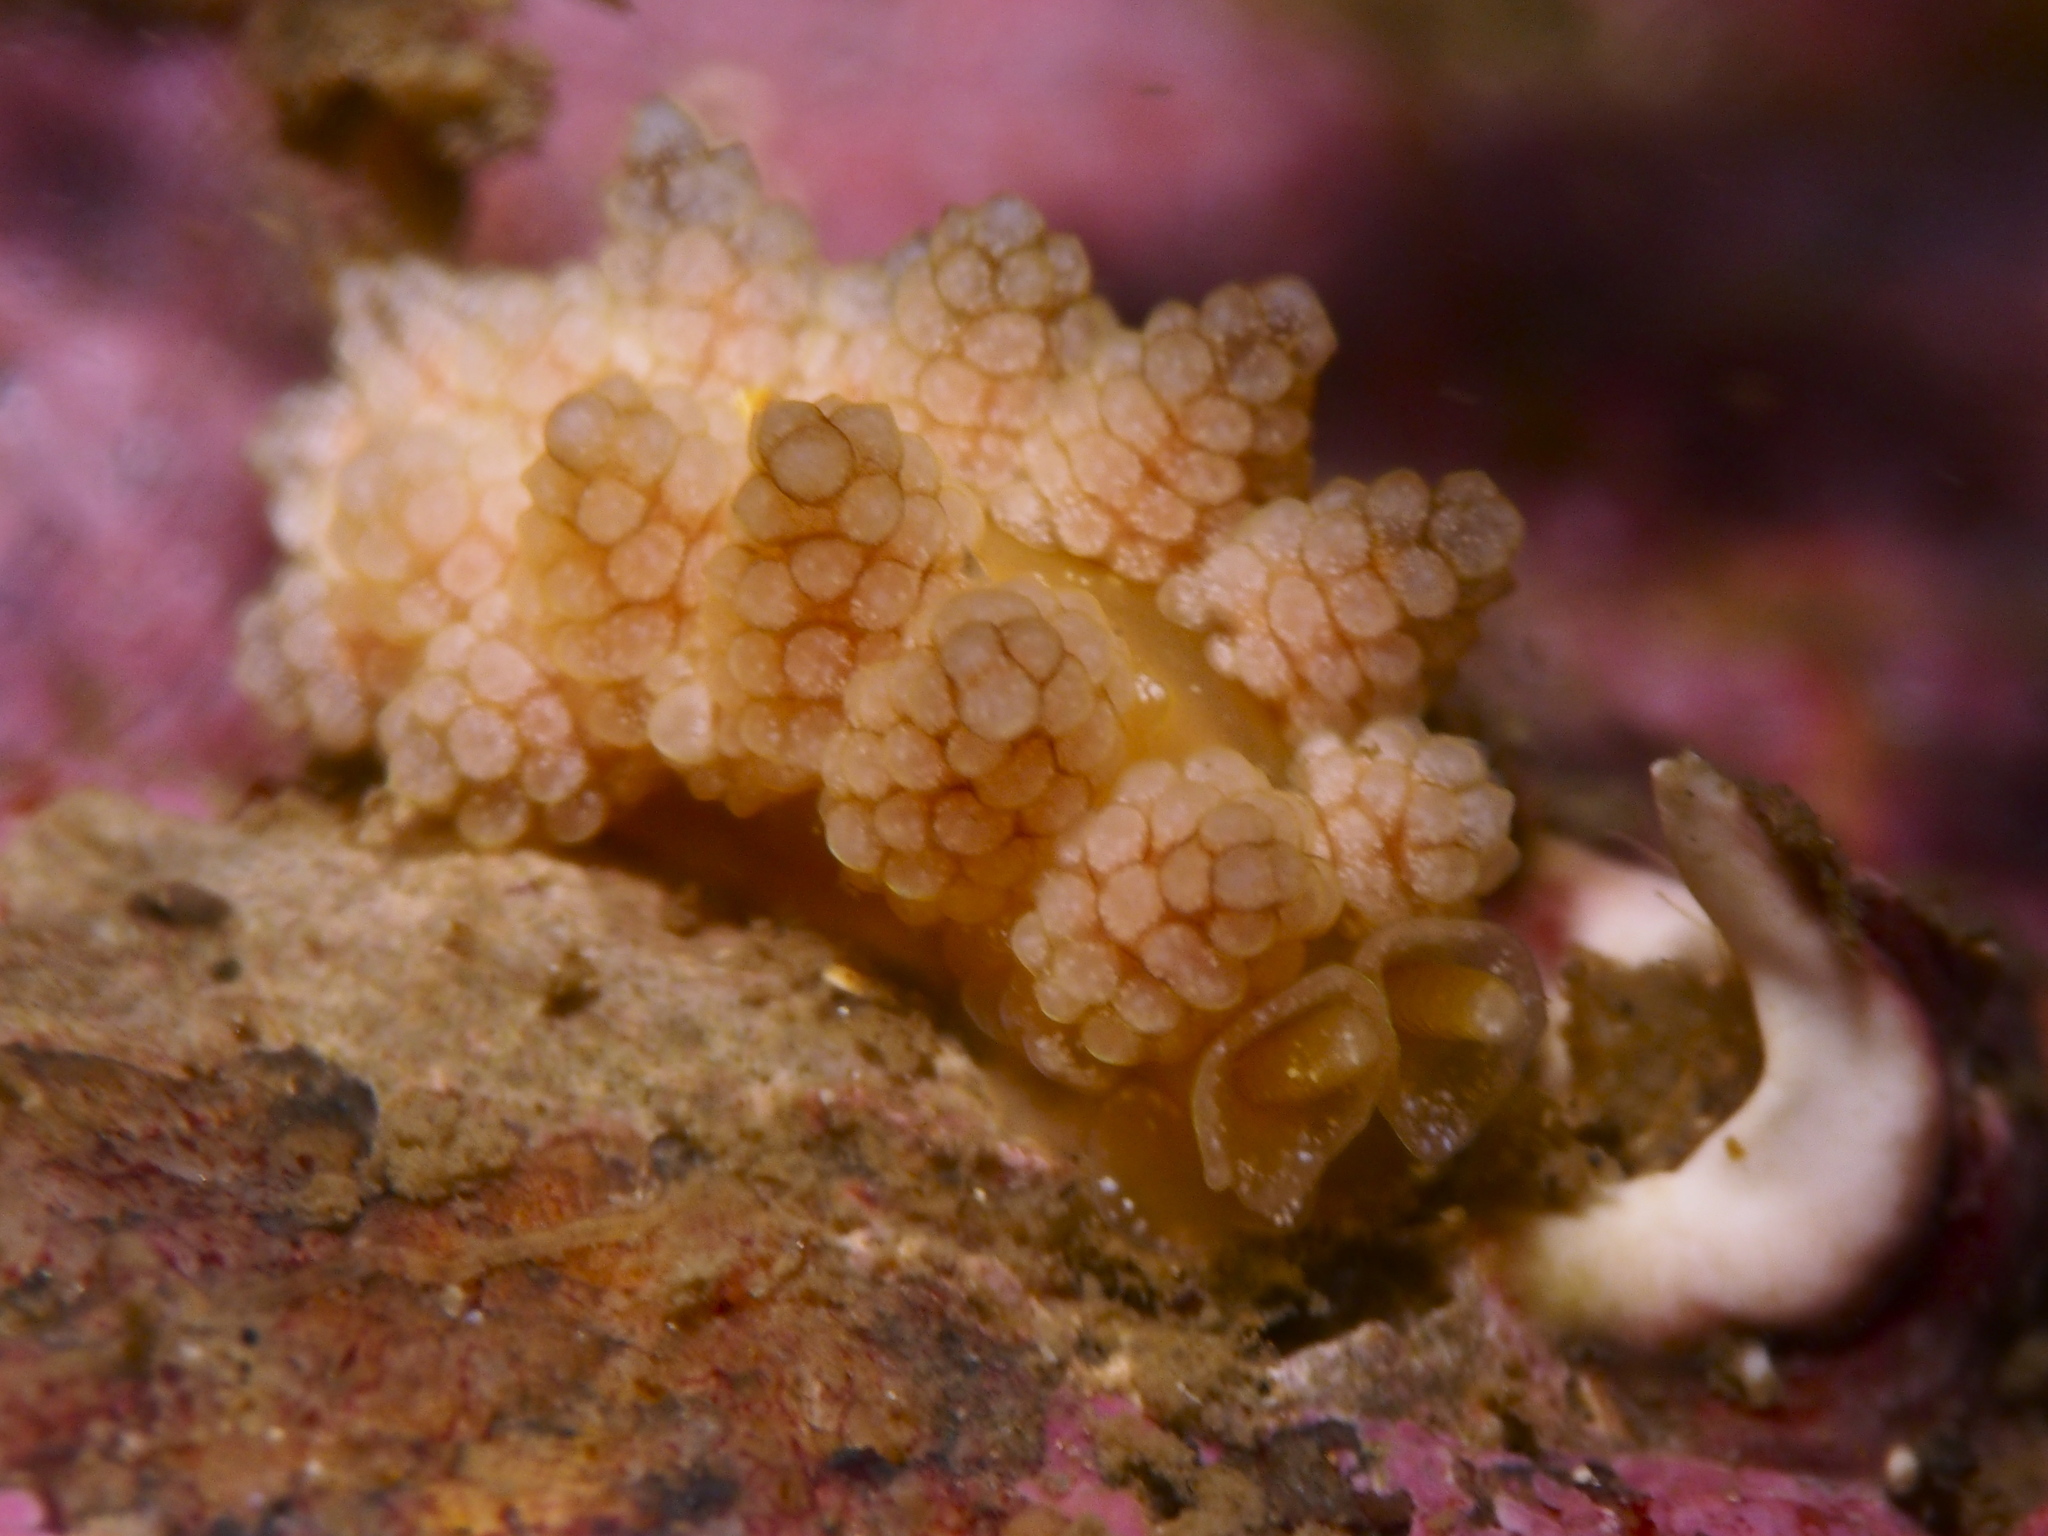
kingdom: Animalia
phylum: Mollusca
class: Gastropoda
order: Nudibranchia
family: Dotidae
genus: Doto
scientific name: Doto fragilis
